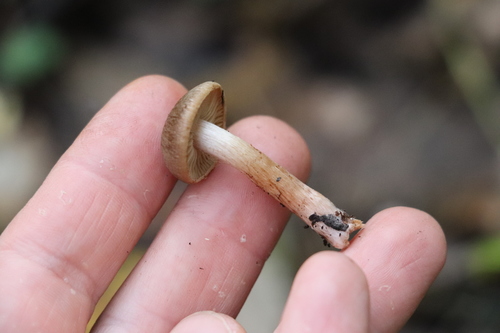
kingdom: Fungi
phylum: Basidiomycota
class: Agaricomycetes
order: Agaricales
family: Cortinariaceae
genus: Cortinarius
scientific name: Cortinarius
